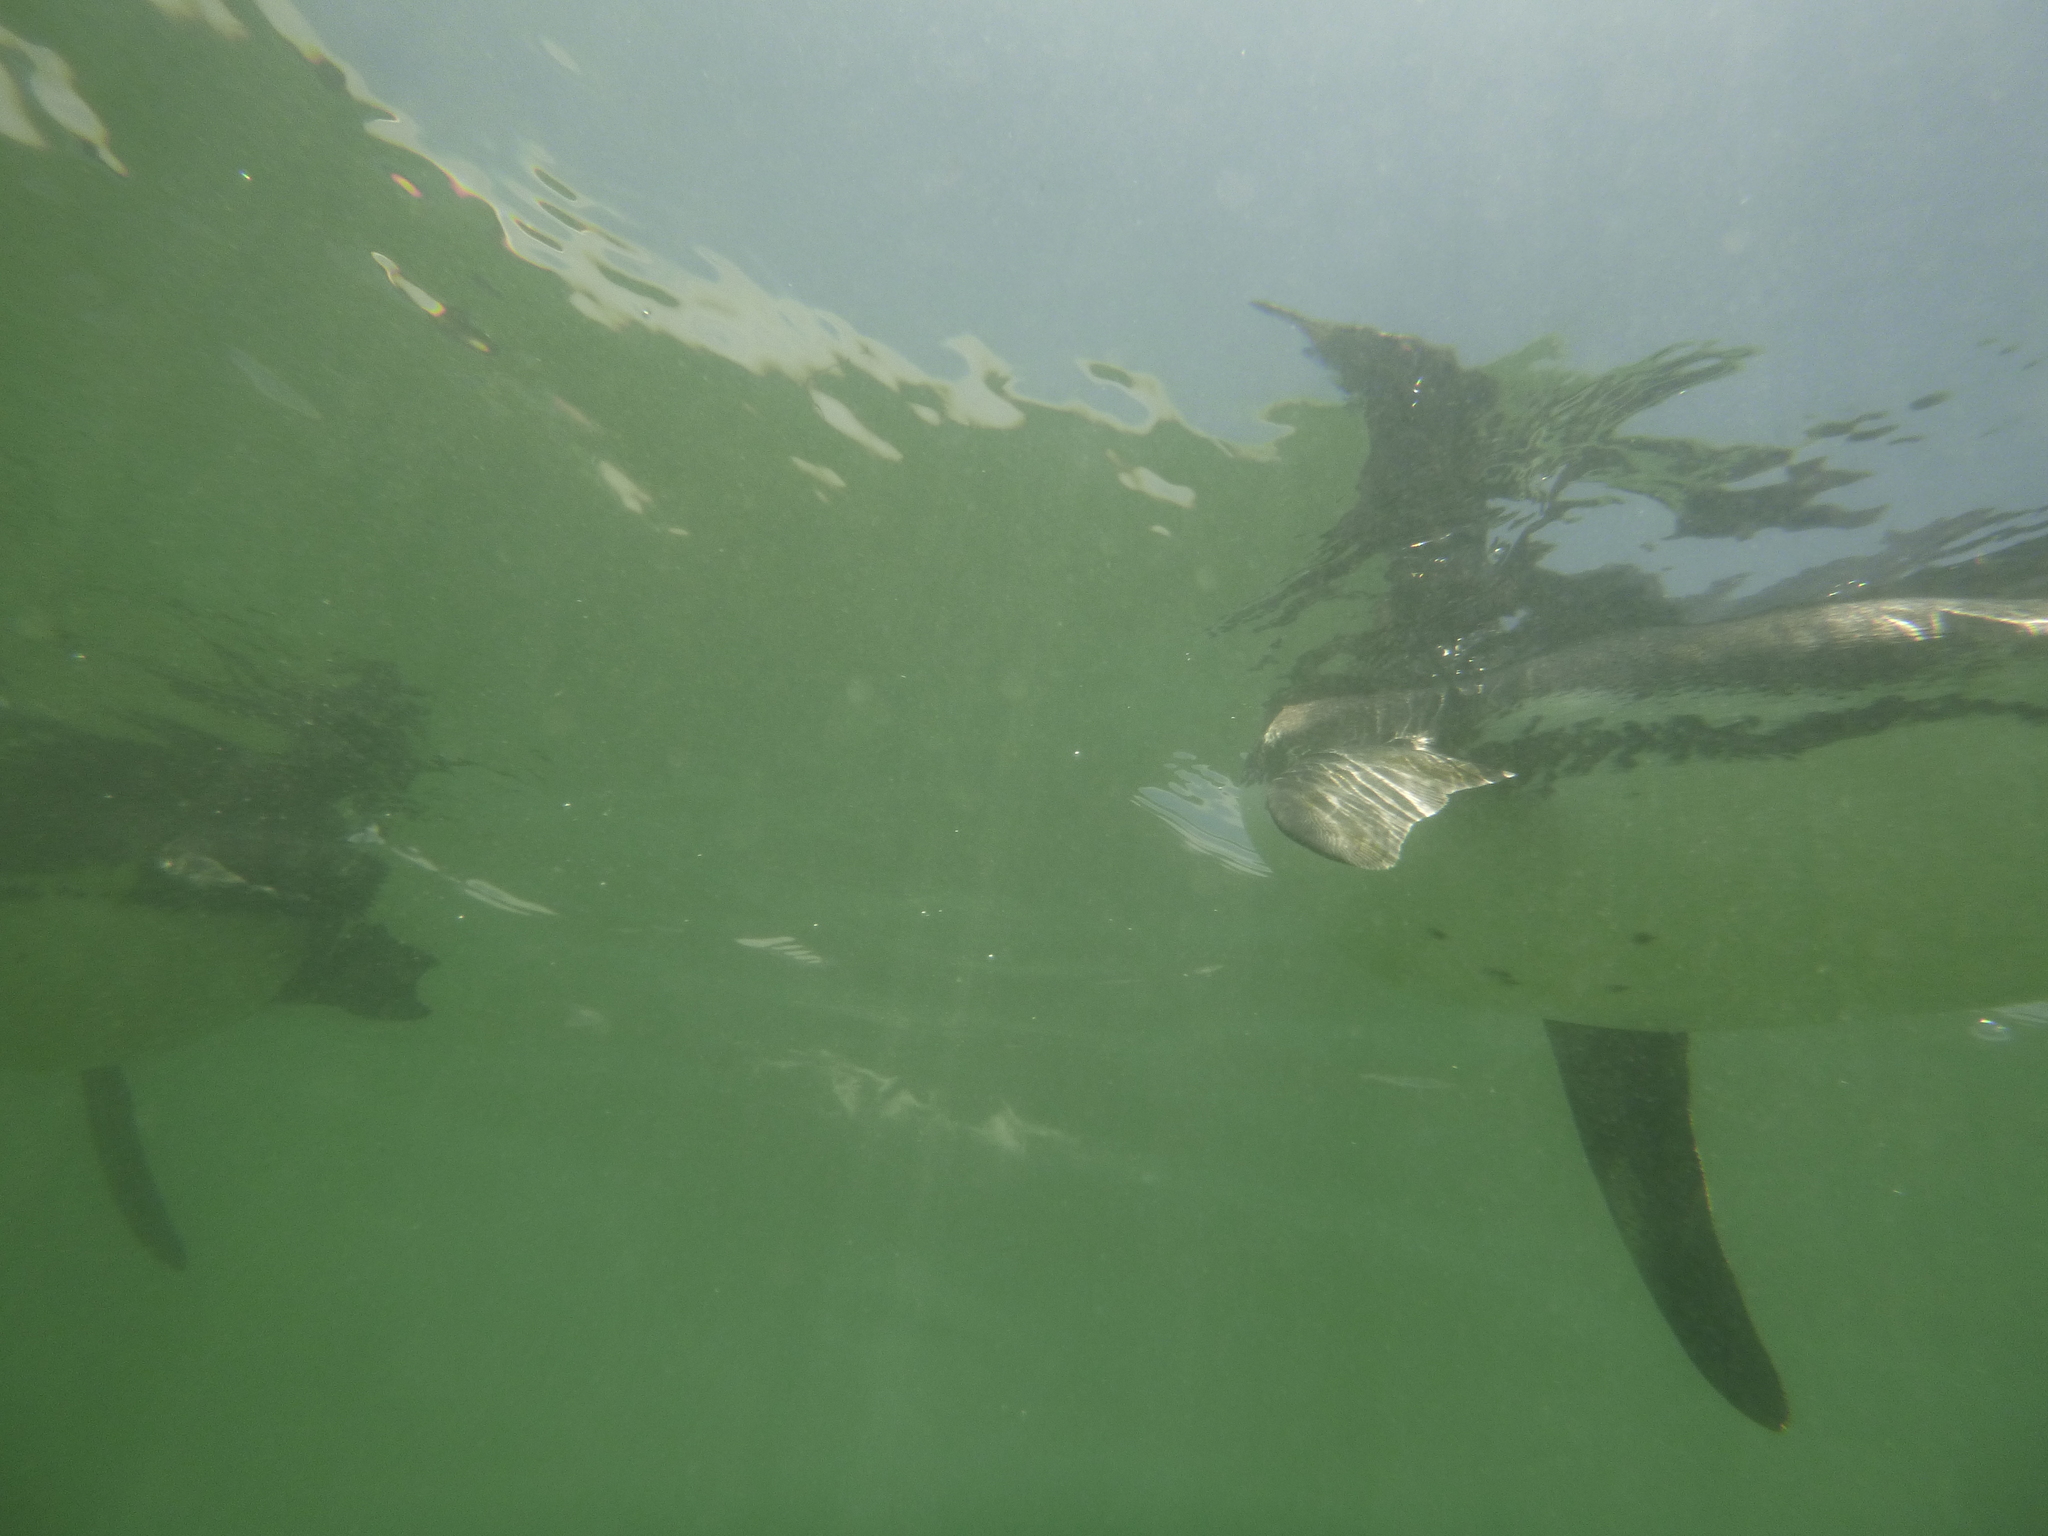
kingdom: Animalia
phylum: Chordata
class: Aves
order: Sphenisciformes
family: Spheniscidae
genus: Spheniscus
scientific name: Spheniscus mendiculus
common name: Galapagos penguin
